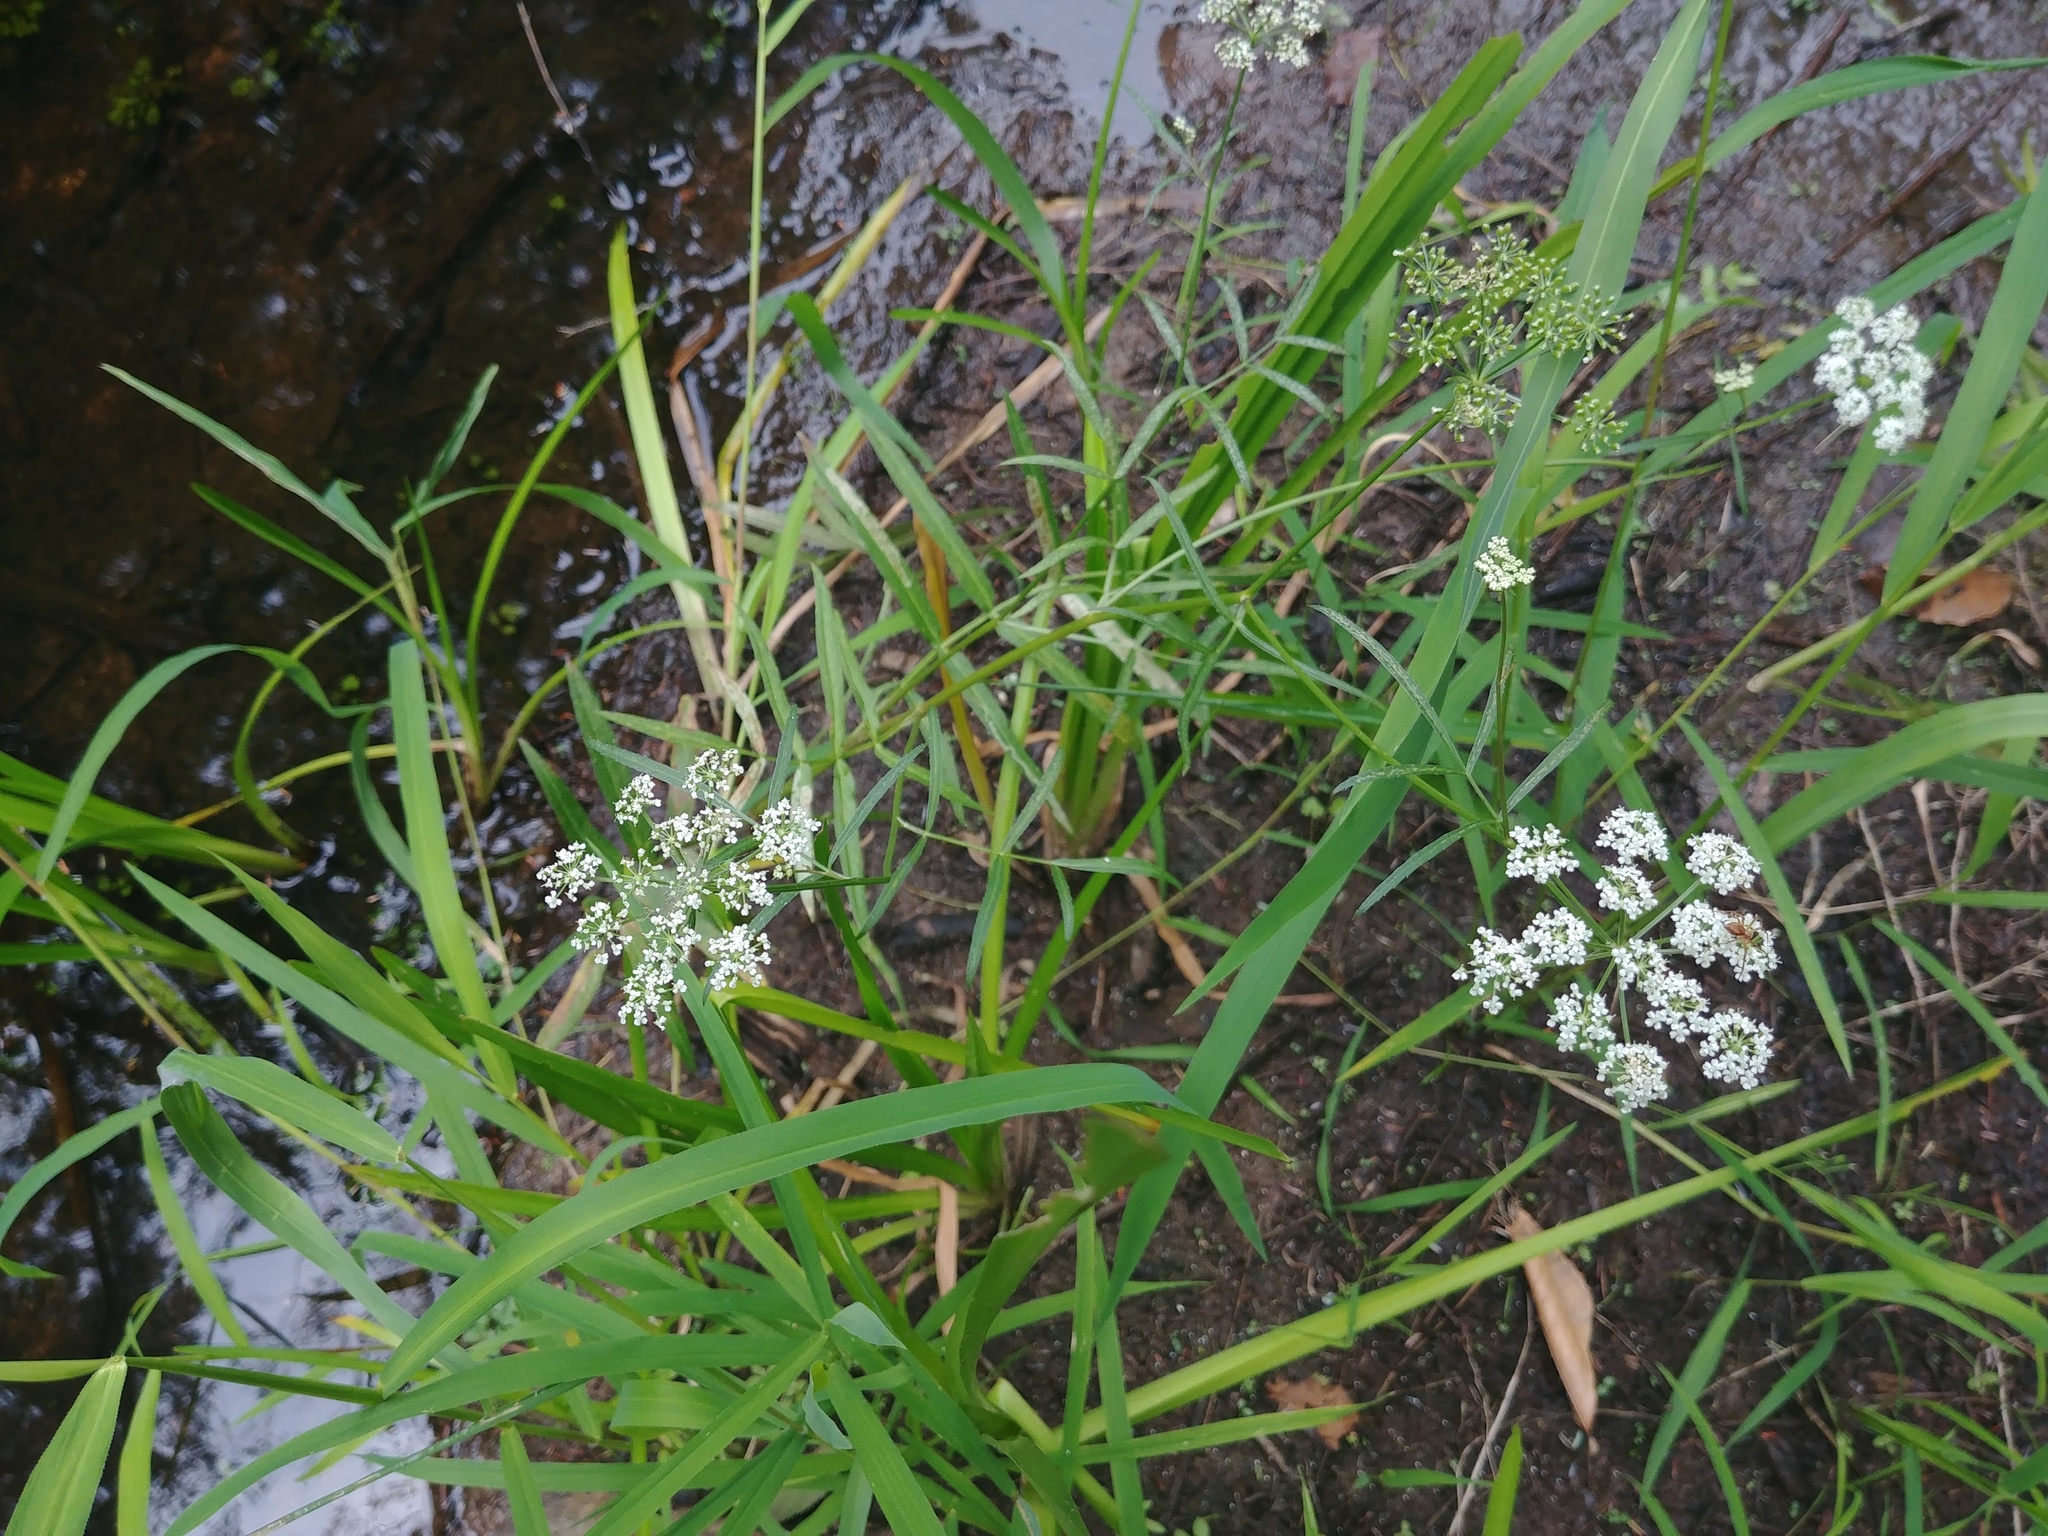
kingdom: Plantae
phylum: Tracheophyta
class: Magnoliopsida
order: Apiales
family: Apiaceae
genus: Sium
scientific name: Sium suave
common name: Hemlock water-parsnip
